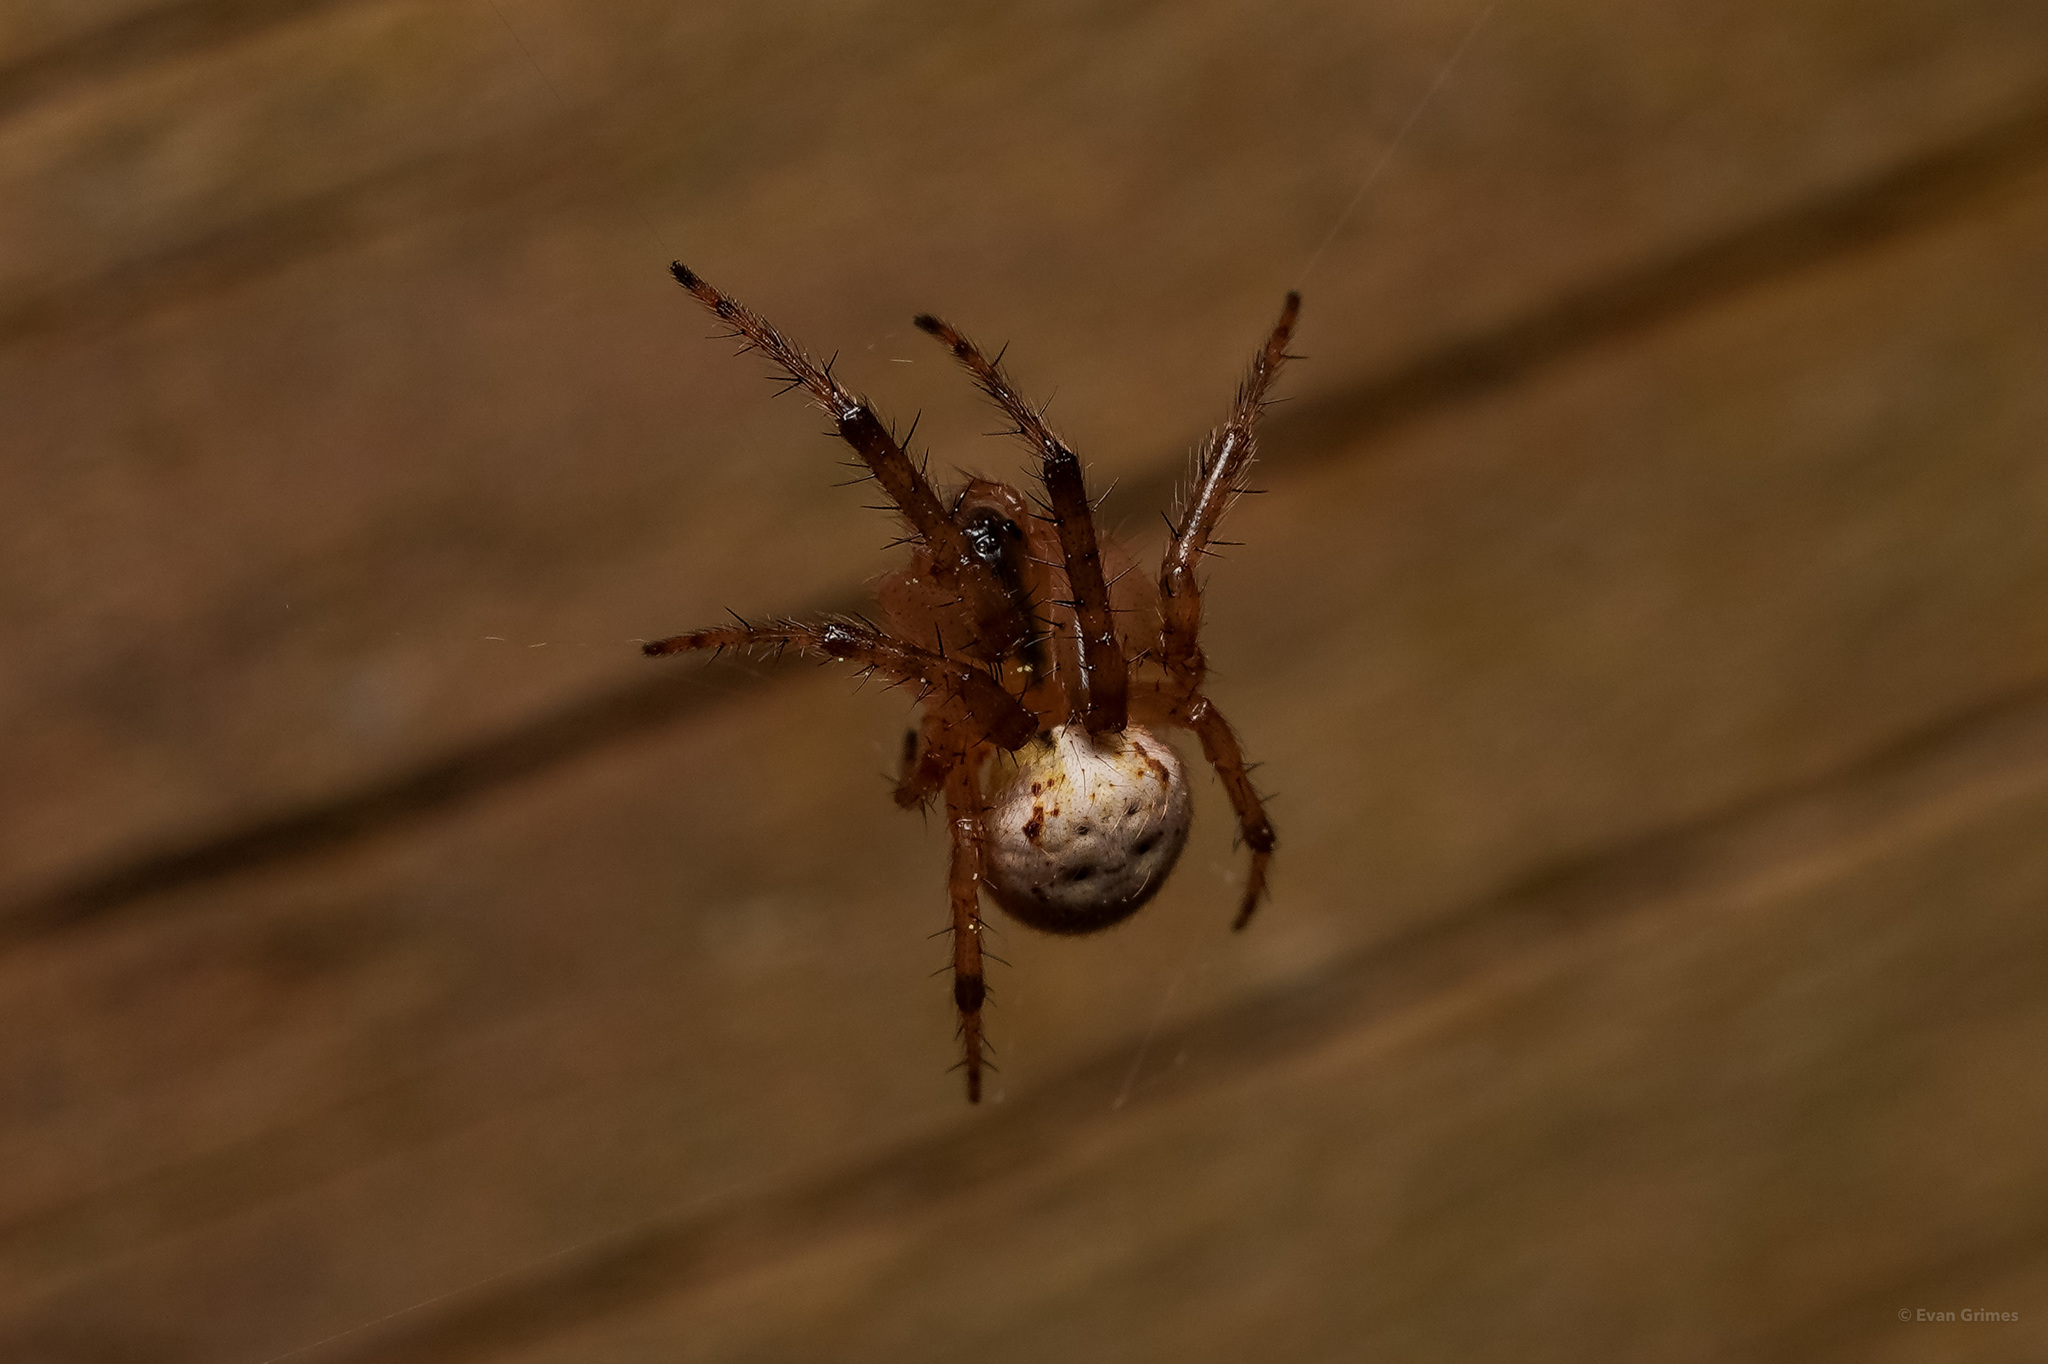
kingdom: Animalia
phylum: Arthropoda
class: Arachnida
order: Araneae
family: Araneidae
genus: Metazygia
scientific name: Metazygia zilloides
